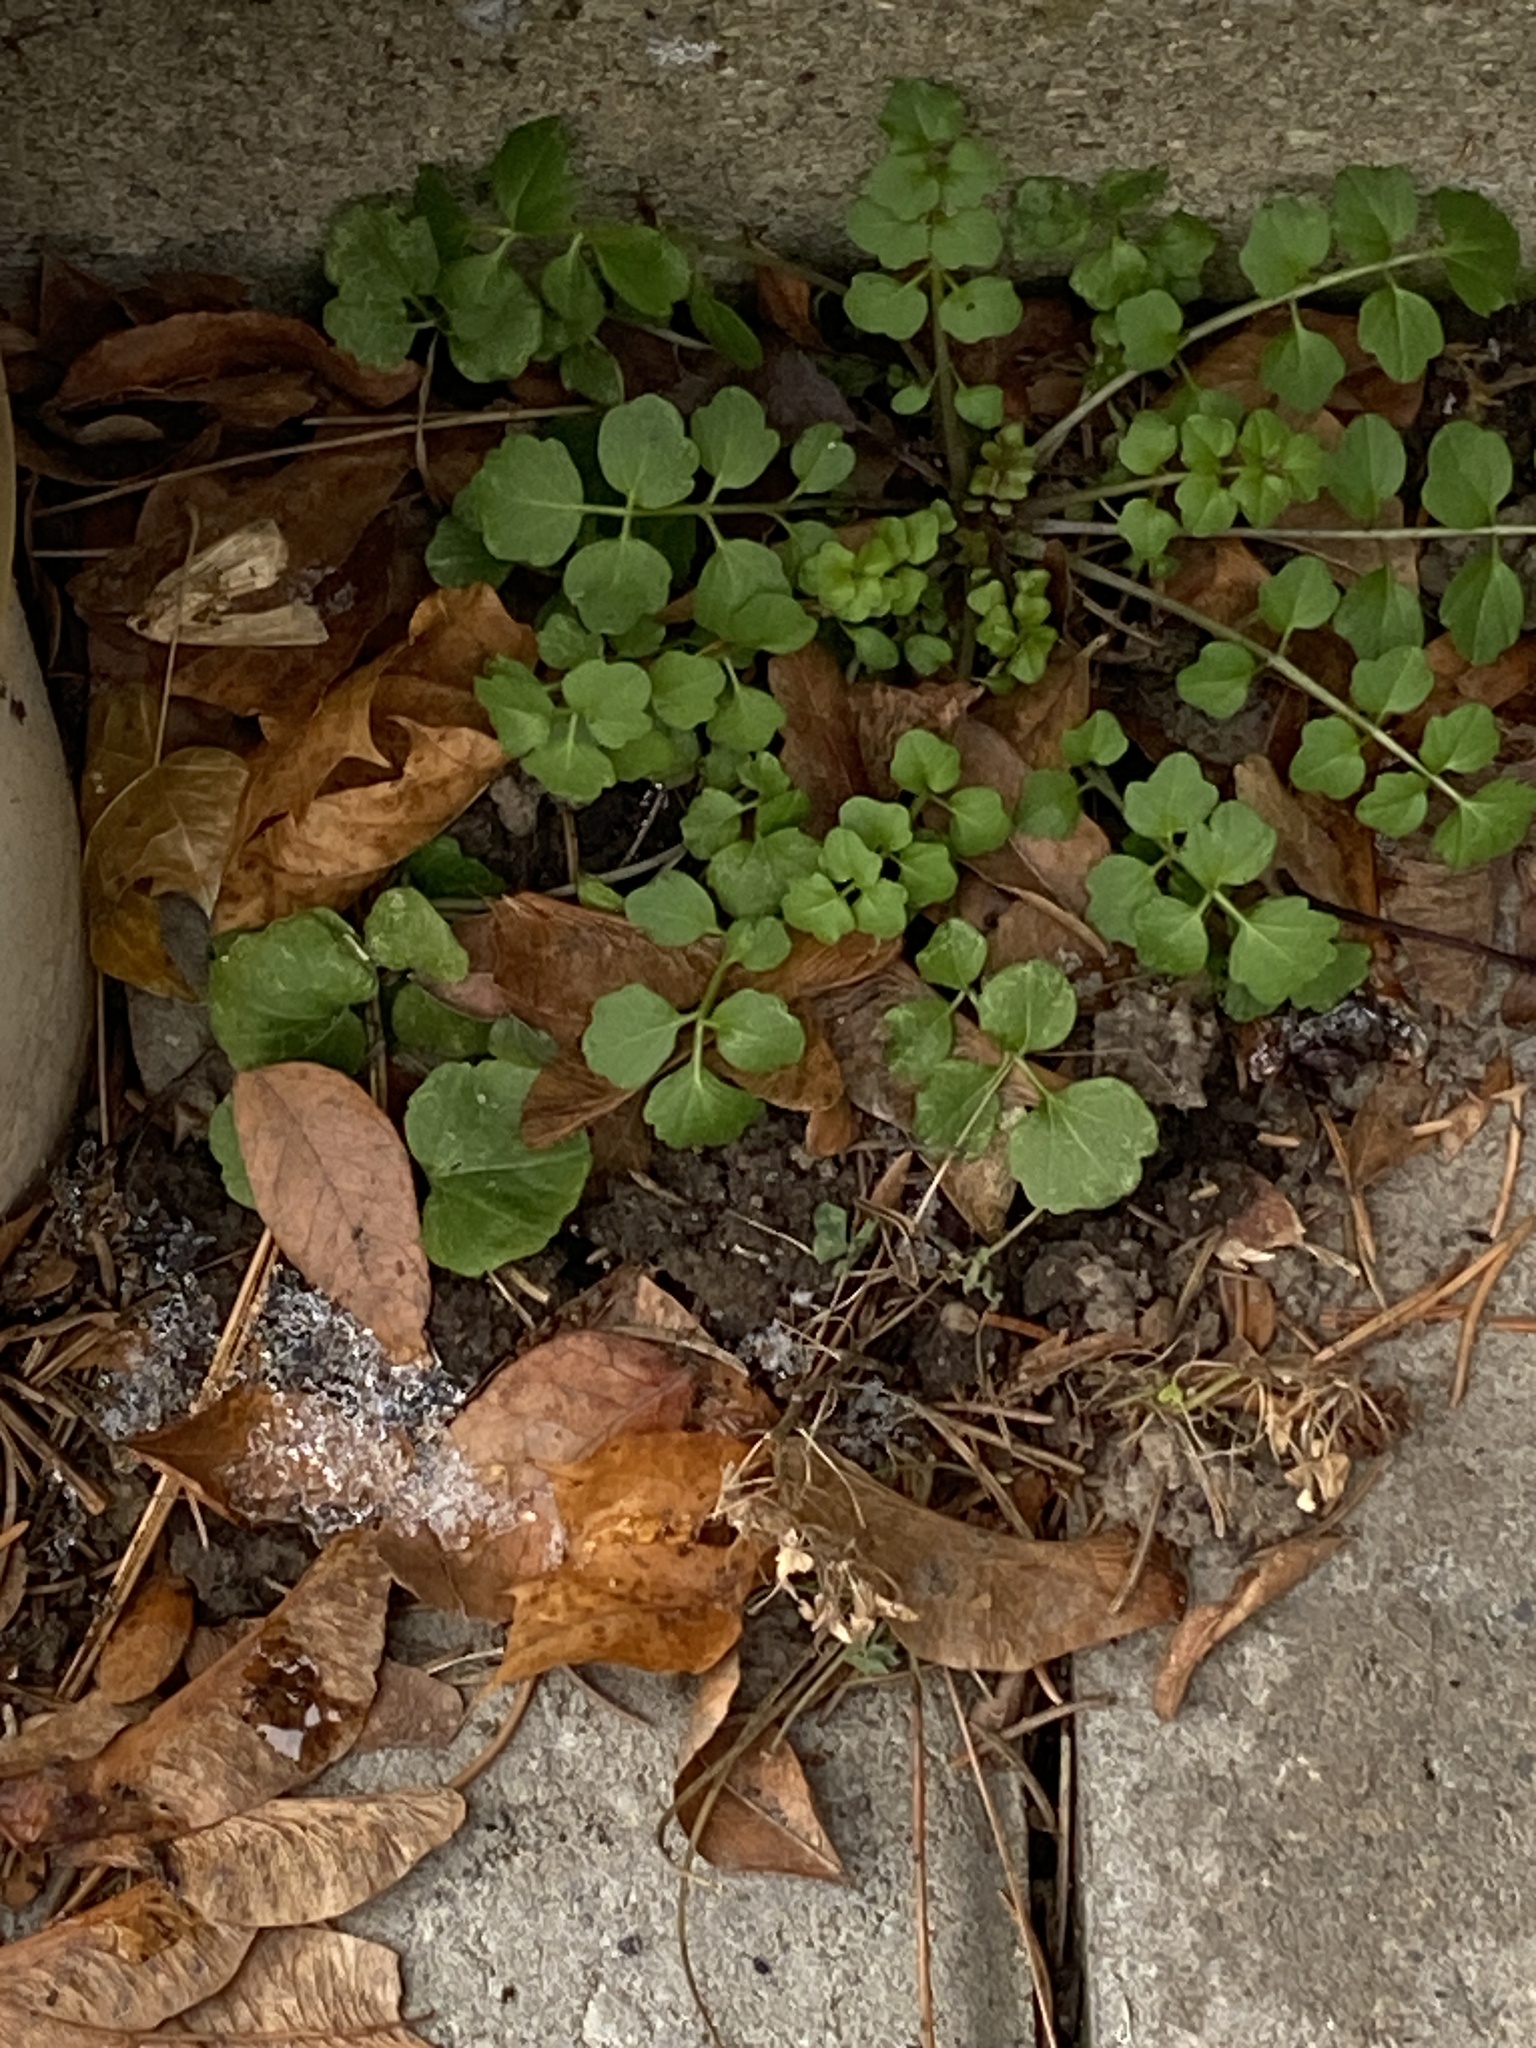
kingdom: Plantae
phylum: Tracheophyta
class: Magnoliopsida
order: Brassicales
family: Brassicaceae
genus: Cardamine
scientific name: Cardamine hirsuta
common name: Hairy bittercress
